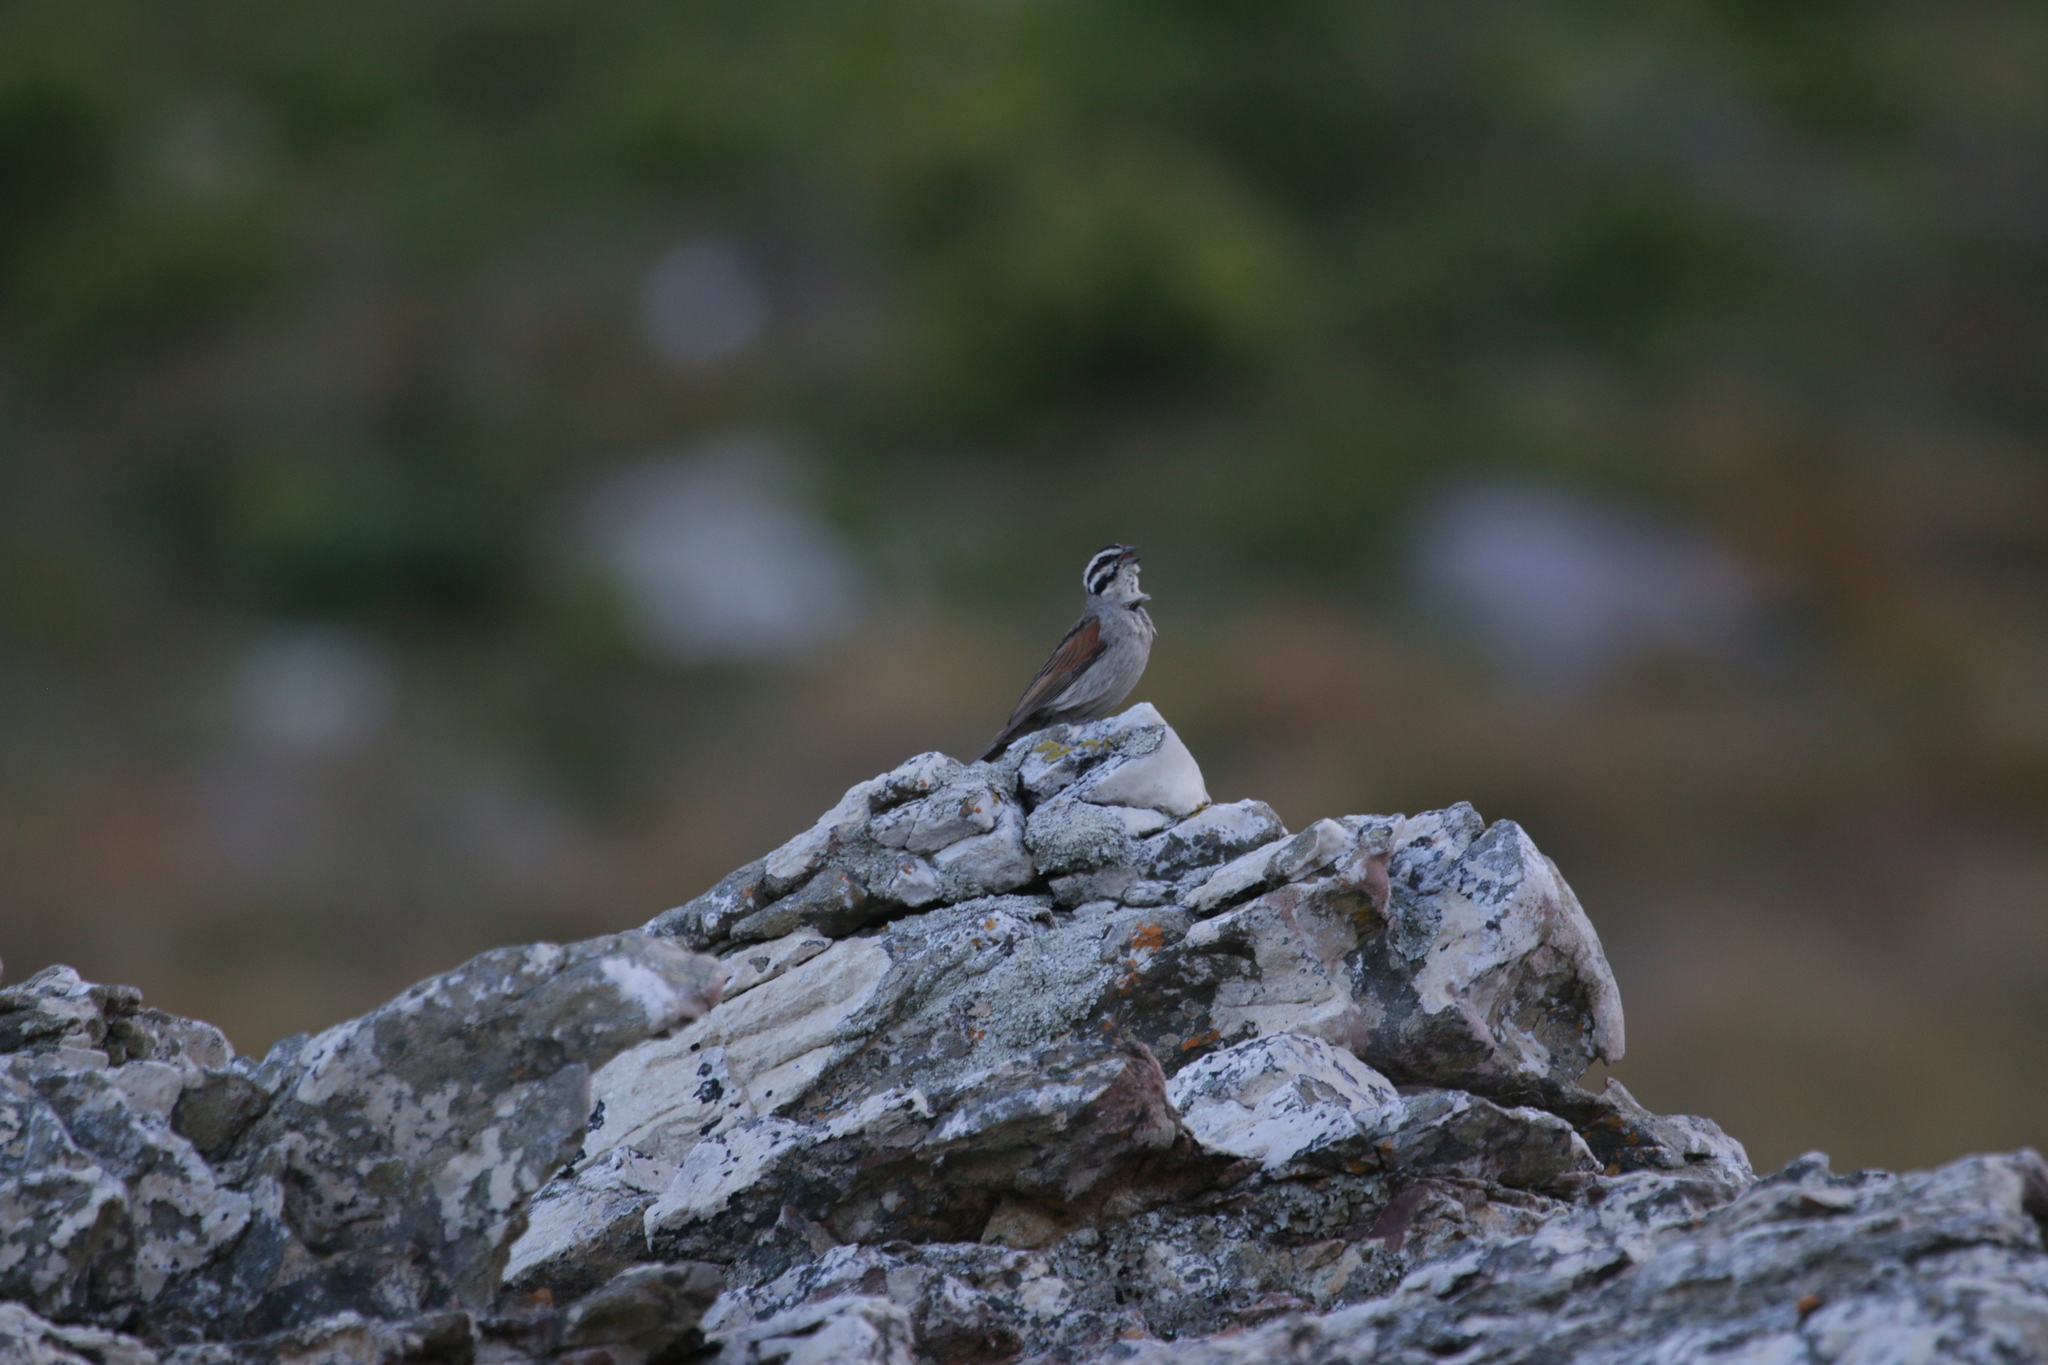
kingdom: Animalia
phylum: Chordata
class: Aves
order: Passeriformes
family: Emberizidae
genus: Emberiza
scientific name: Emberiza capensis
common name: Cape bunting
